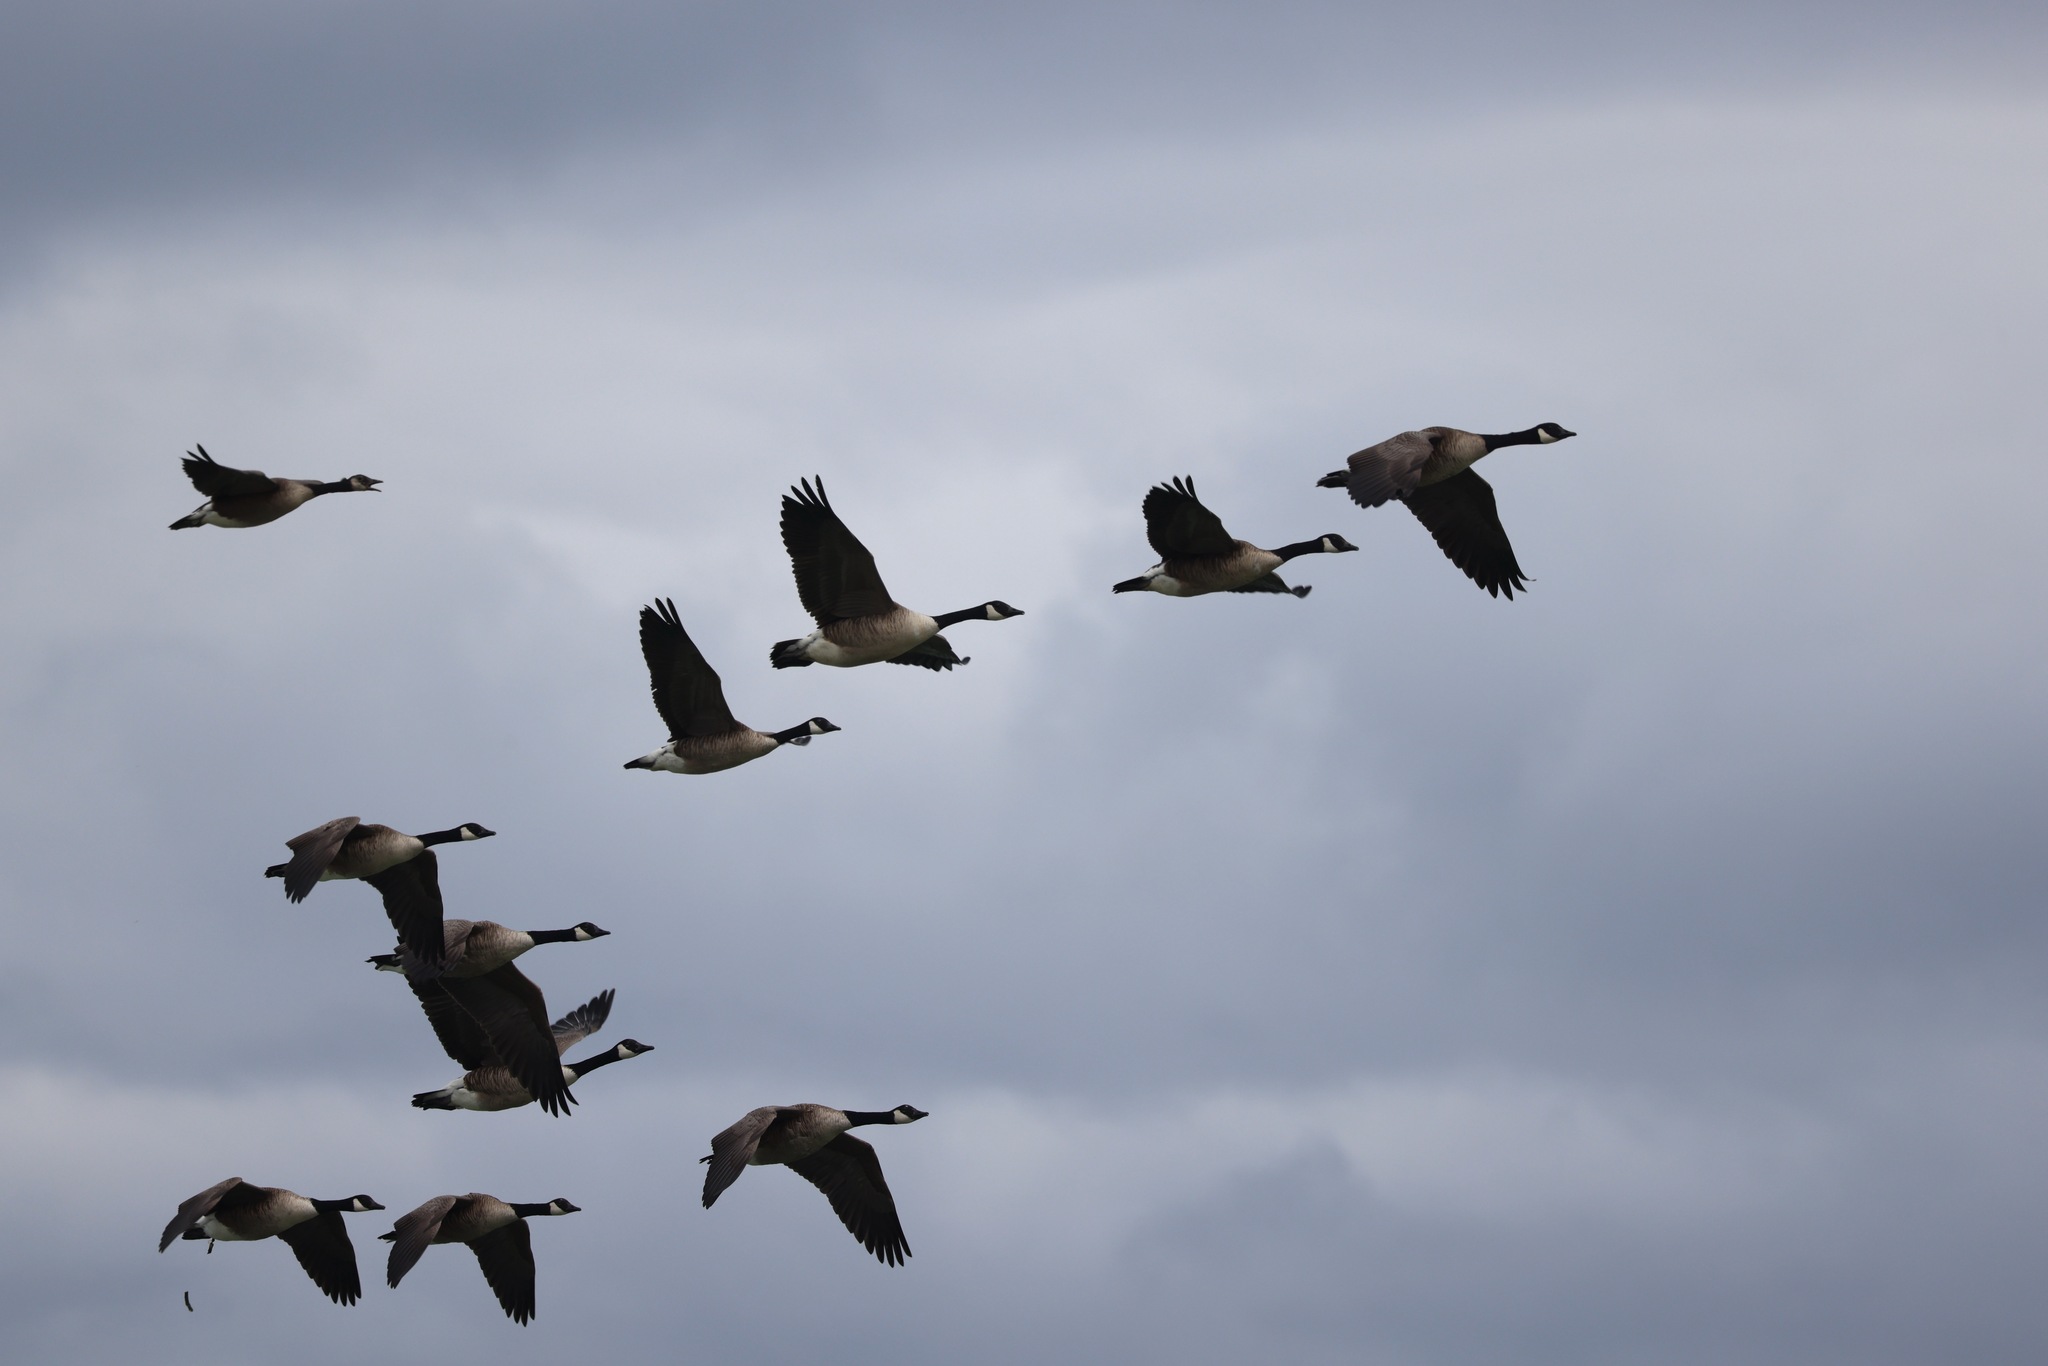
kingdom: Animalia
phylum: Chordata
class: Aves
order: Anseriformes
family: Anatidae
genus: Branta
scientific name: Branta canadensis
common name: Canada goose
